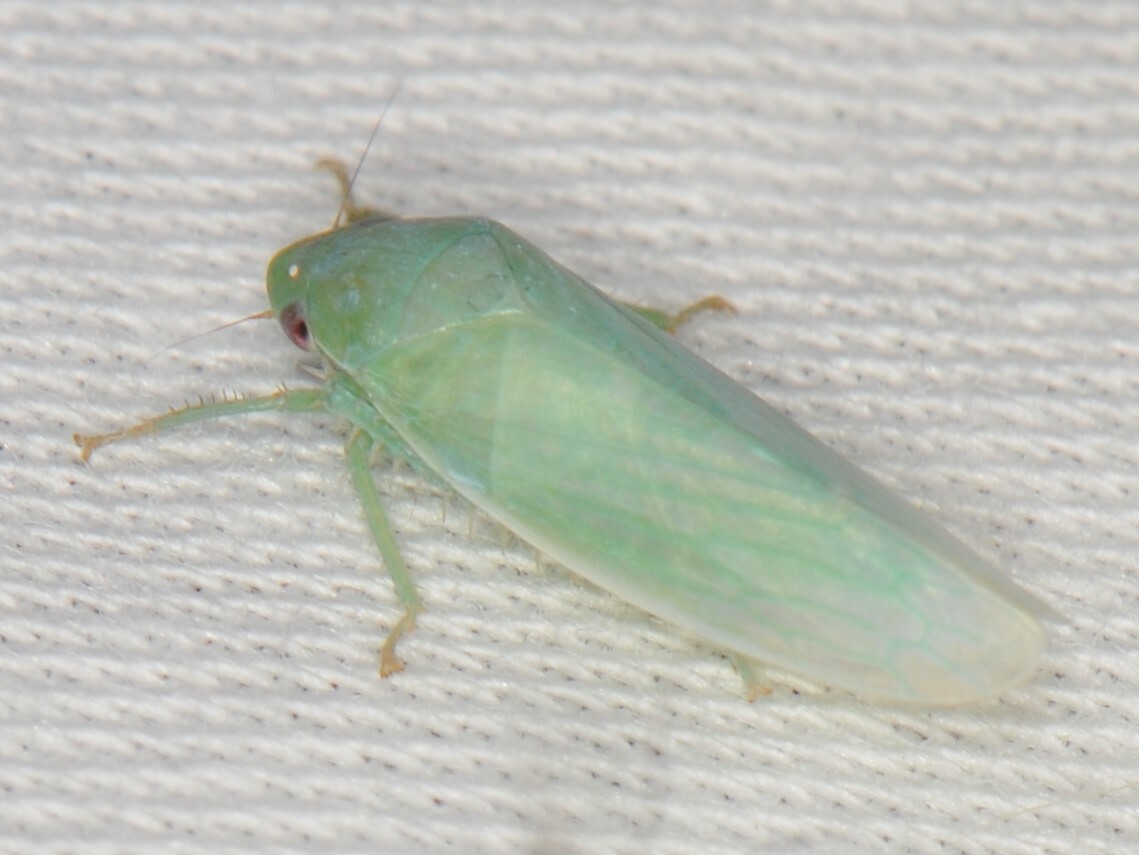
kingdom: Animalia
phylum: Arthropoda
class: Insecta
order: Hemiptera
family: Cicadellidae
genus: Gyponana
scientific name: Gyponana
